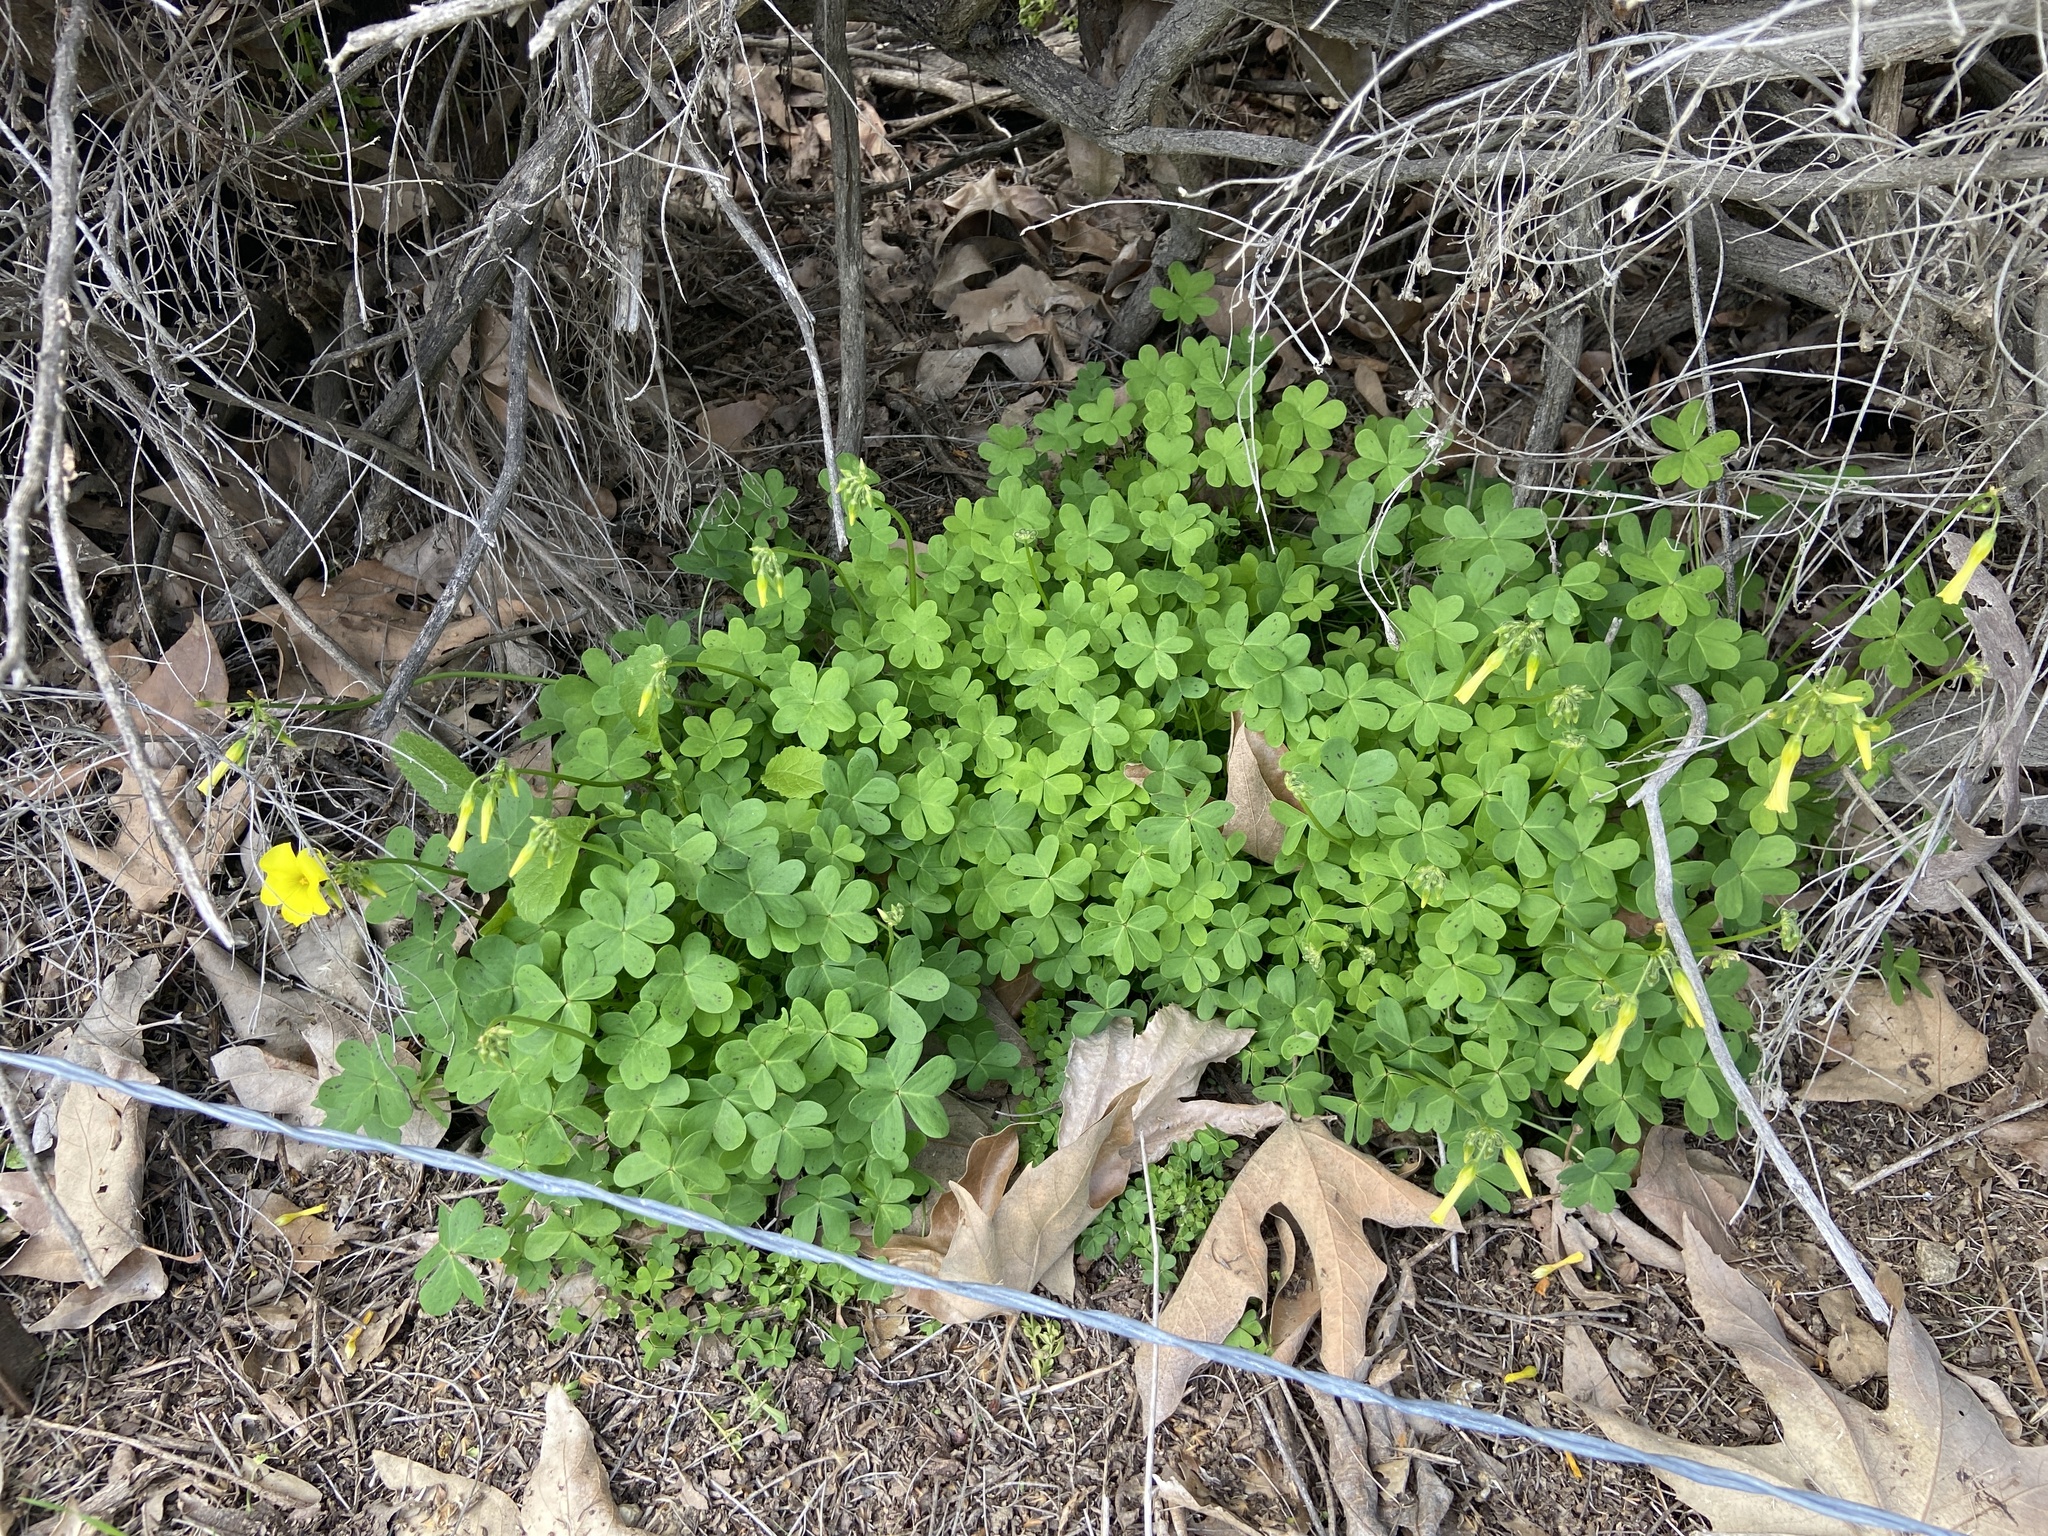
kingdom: Plantae
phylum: Tracheophyta
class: Magnoliopsida
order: Oxalidales
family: Oxalidaceae
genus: Oxalis
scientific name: Oxalis pes-caprae
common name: Bermuda-buttercup
